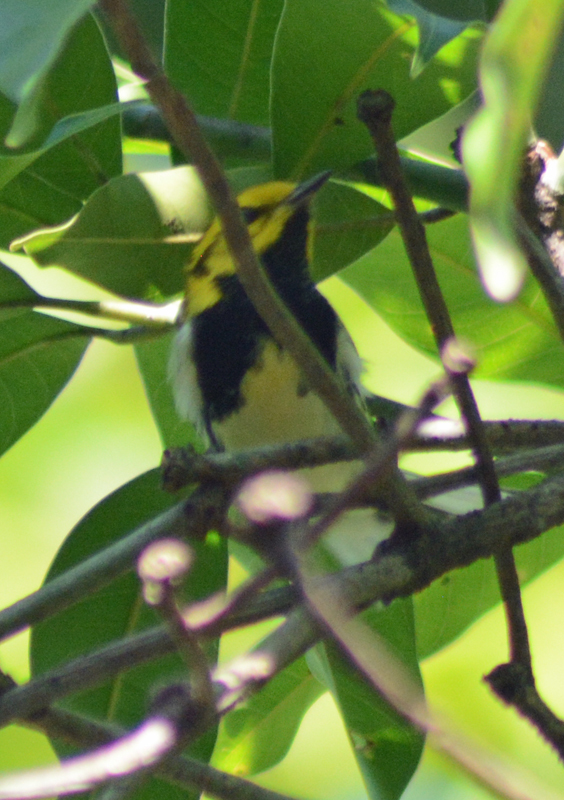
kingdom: Animalia
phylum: Chordata
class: Aves
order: Passeriformes
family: Parulidae
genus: Setophaga
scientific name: Setophaga virens
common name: Black-throated green warbler
